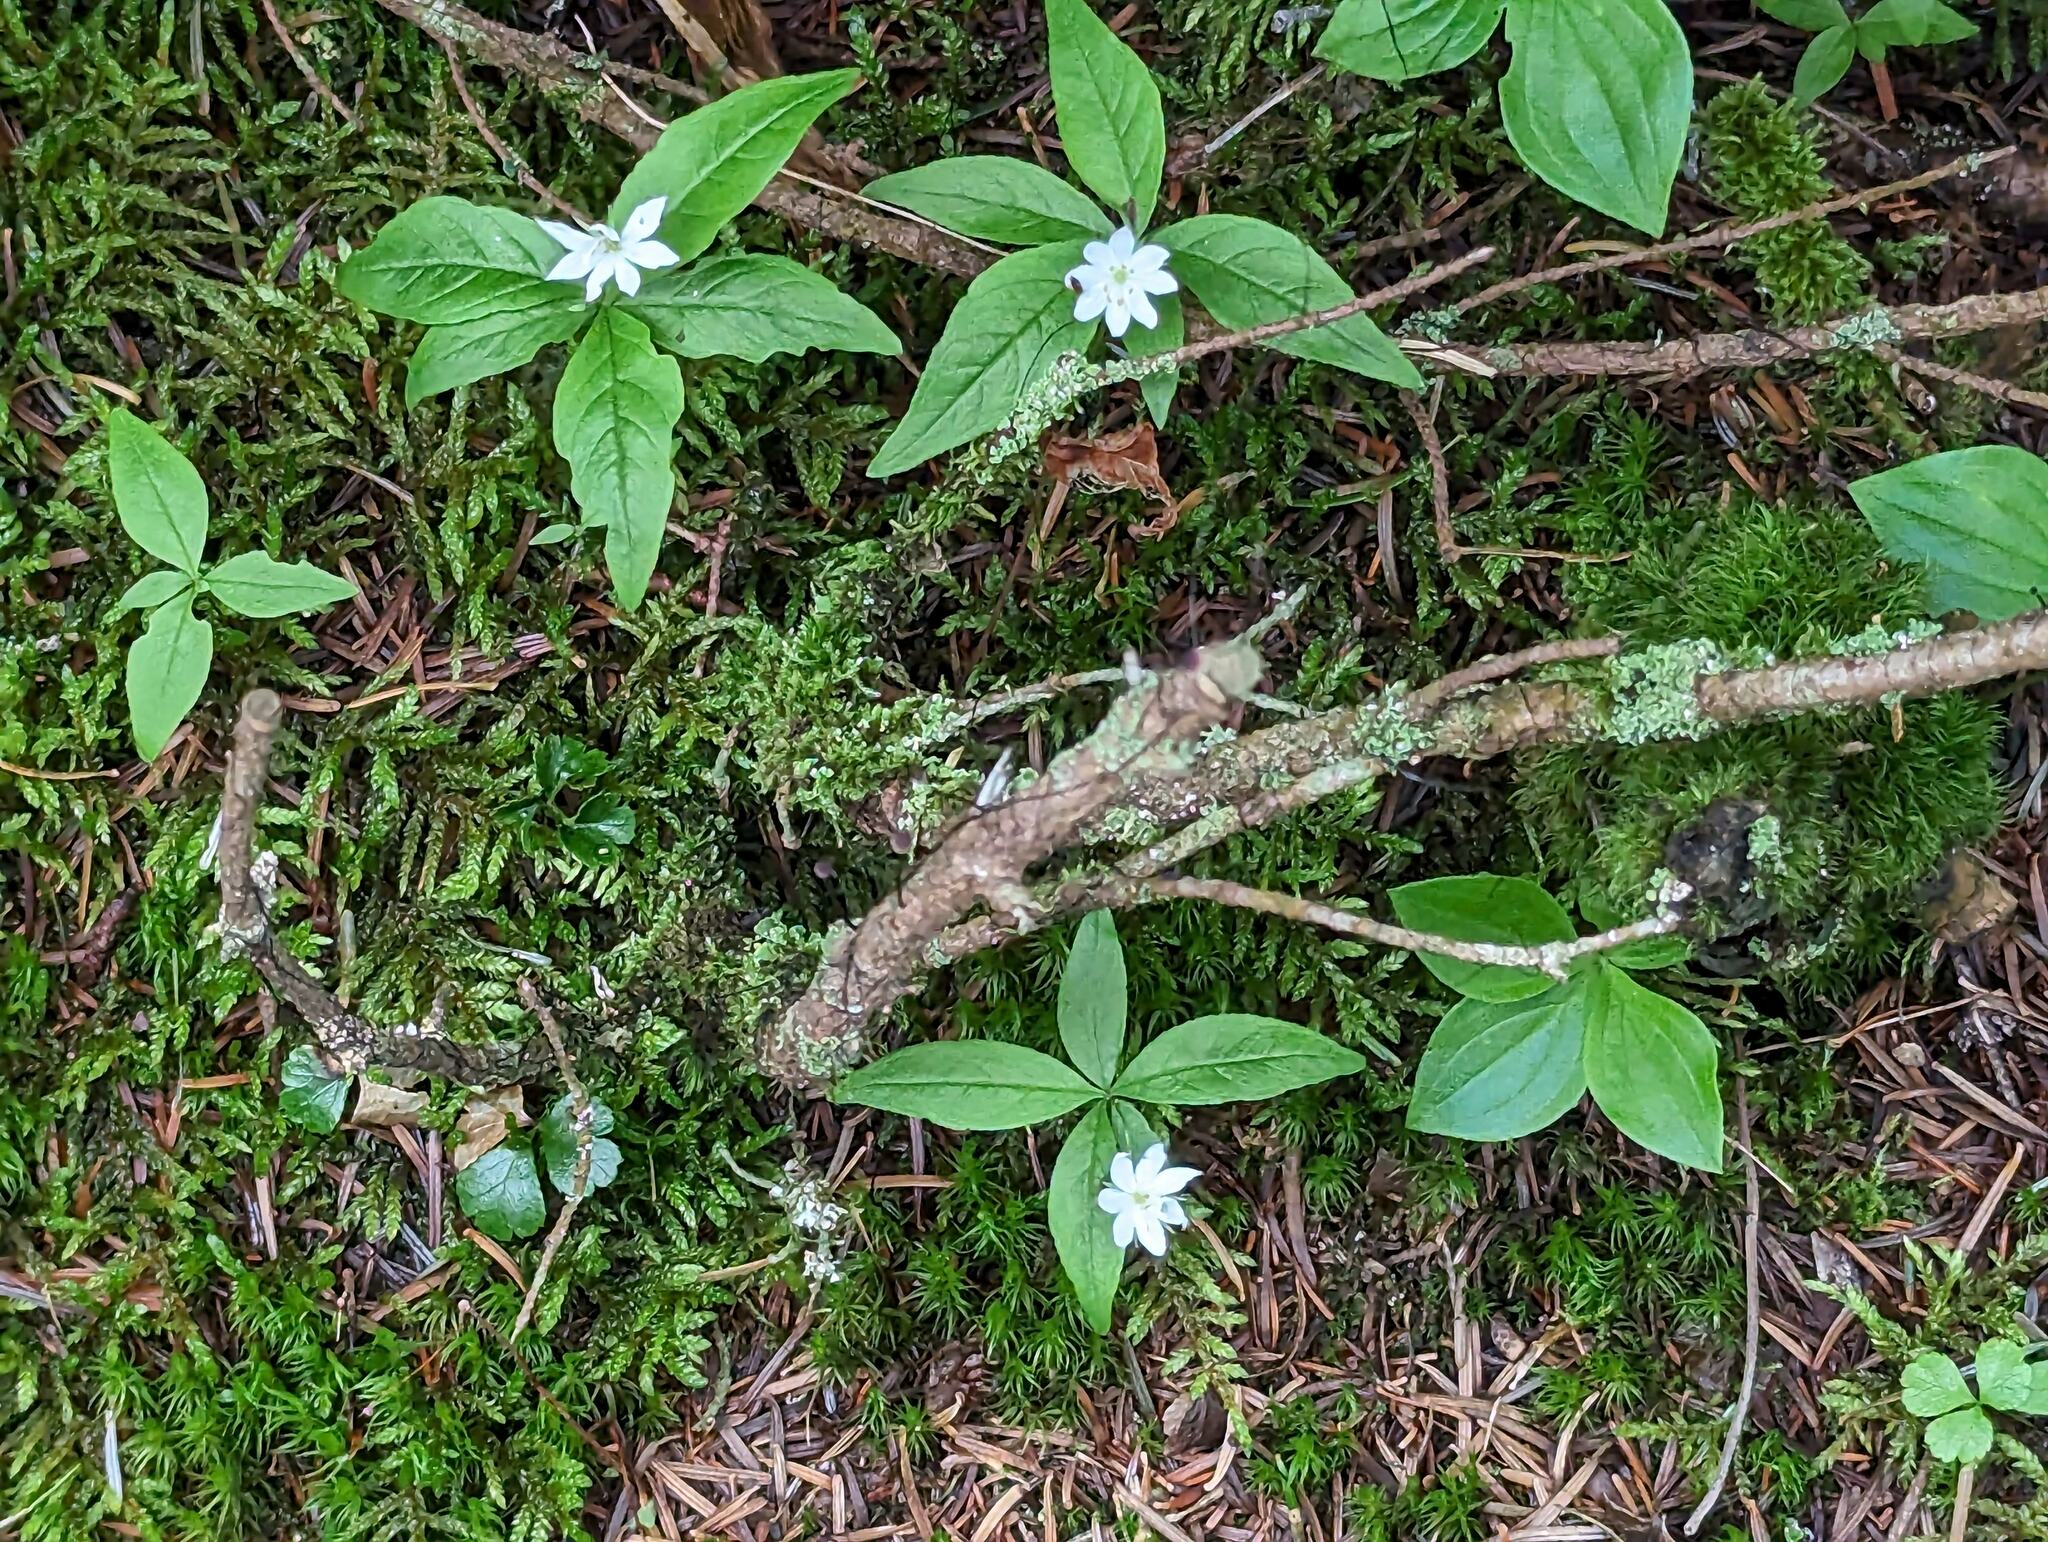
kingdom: Plantae
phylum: Tracheophyta
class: Magnoliopsida
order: Ericales
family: Primulaceae
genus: Lysimachia
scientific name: Lysimachia borealis
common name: American starflower
